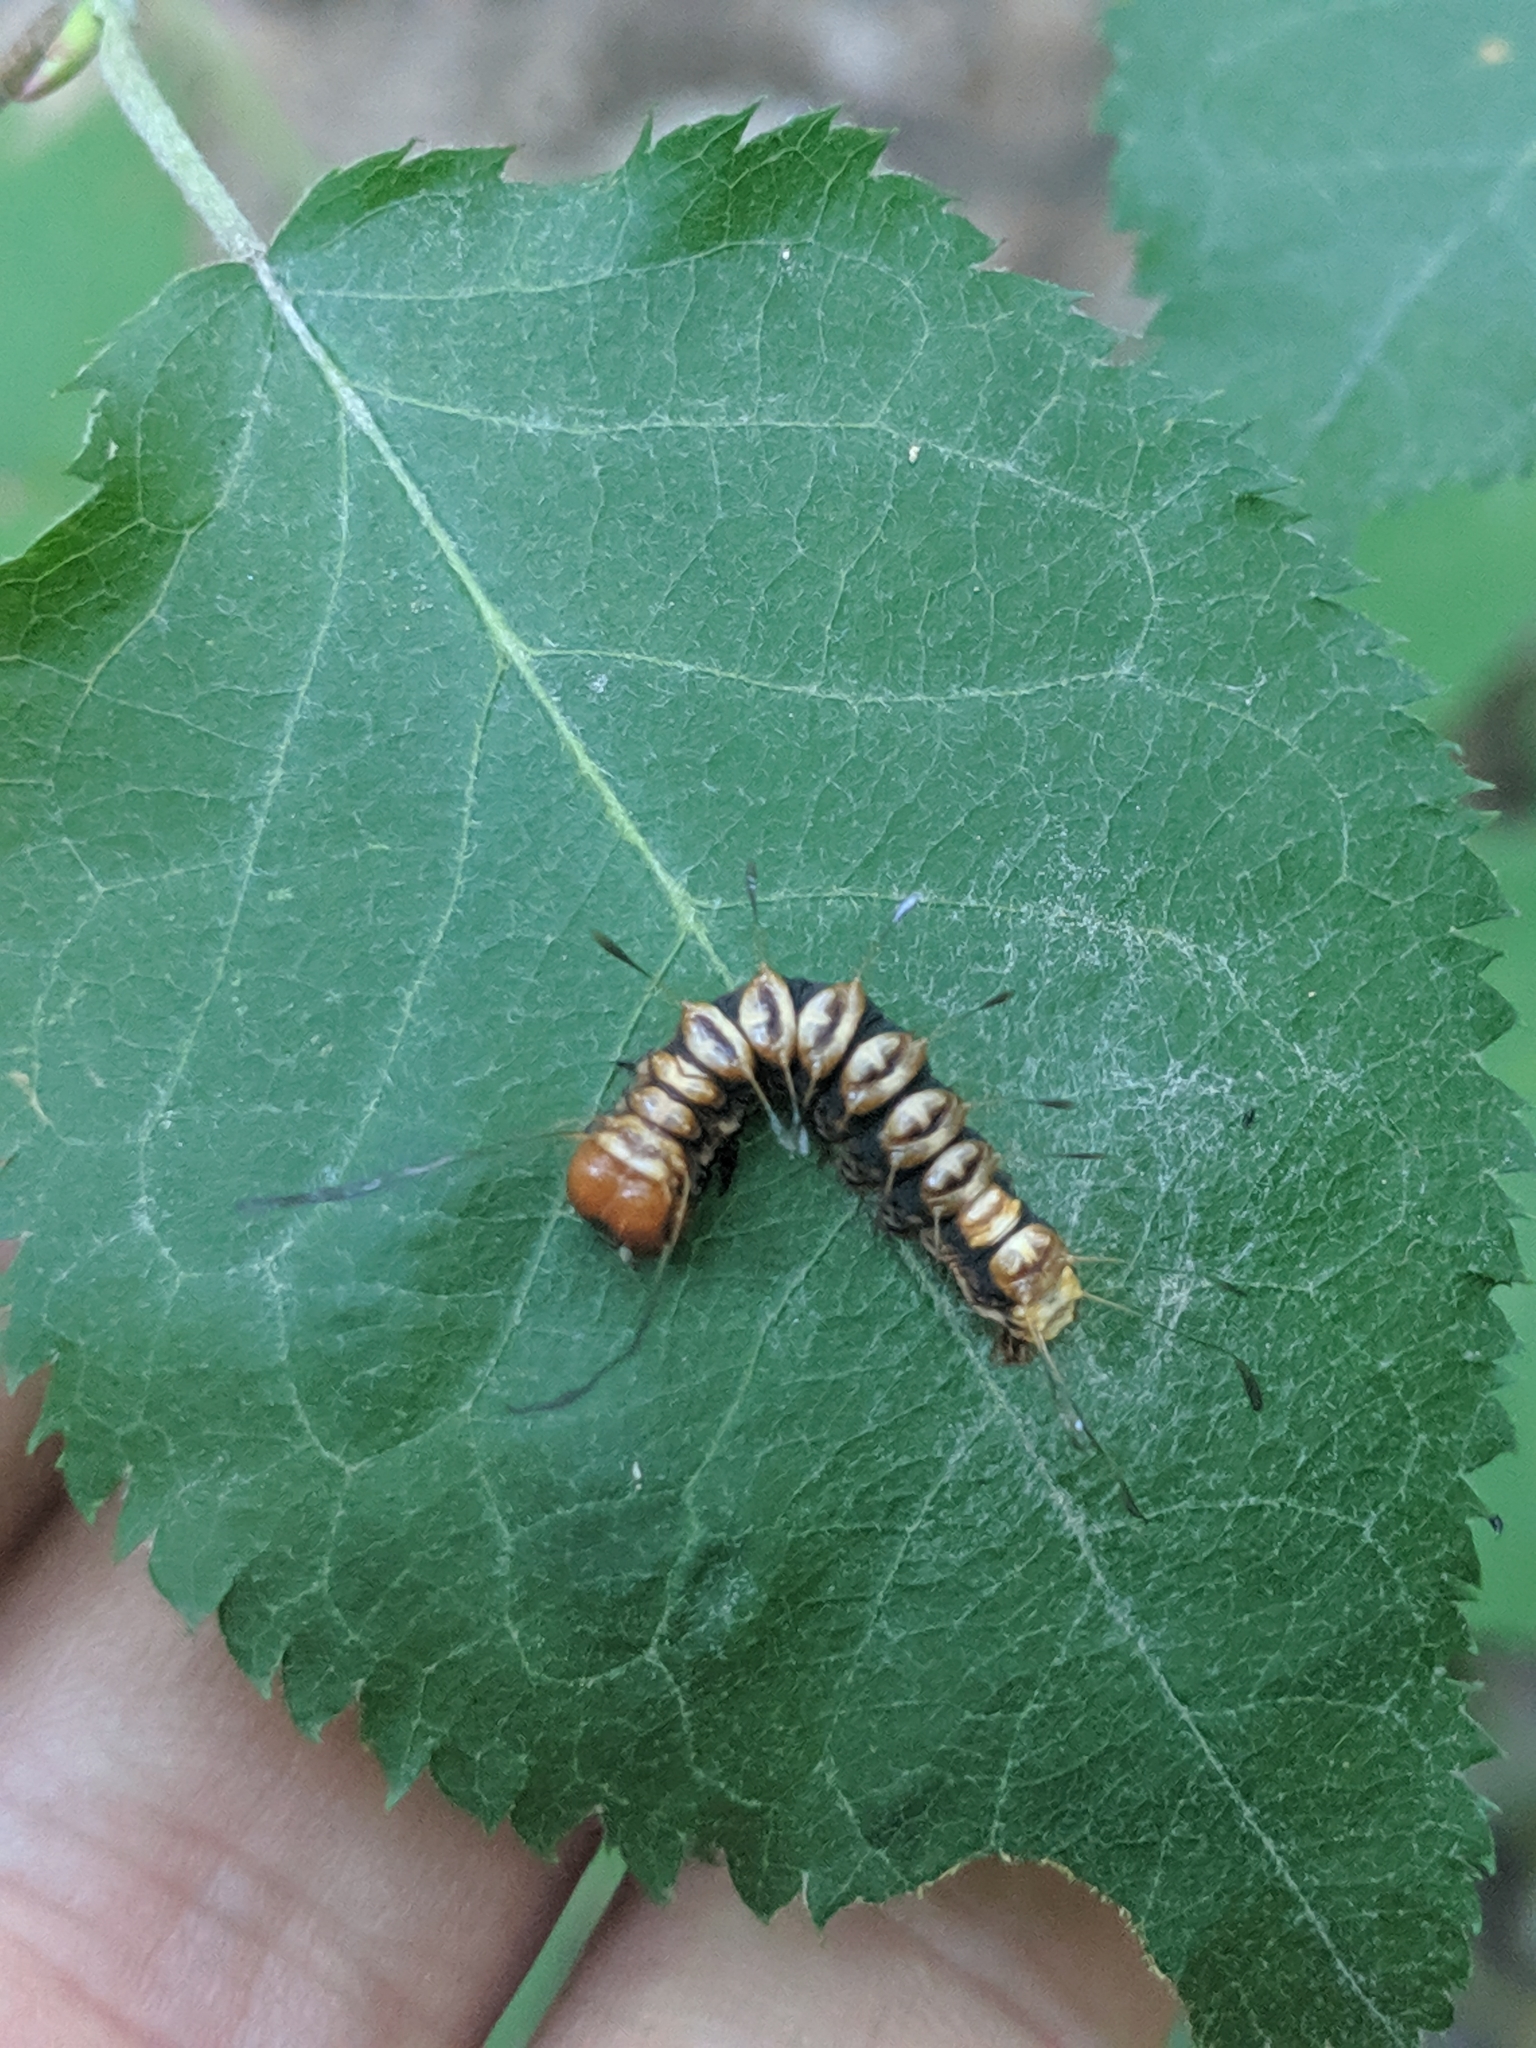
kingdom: Animalia
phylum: Arthropoda
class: Insecta
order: Lepidoptera
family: Noctuidae
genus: Acronicta
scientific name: Acronicta funeralis
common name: Funerary dagger
